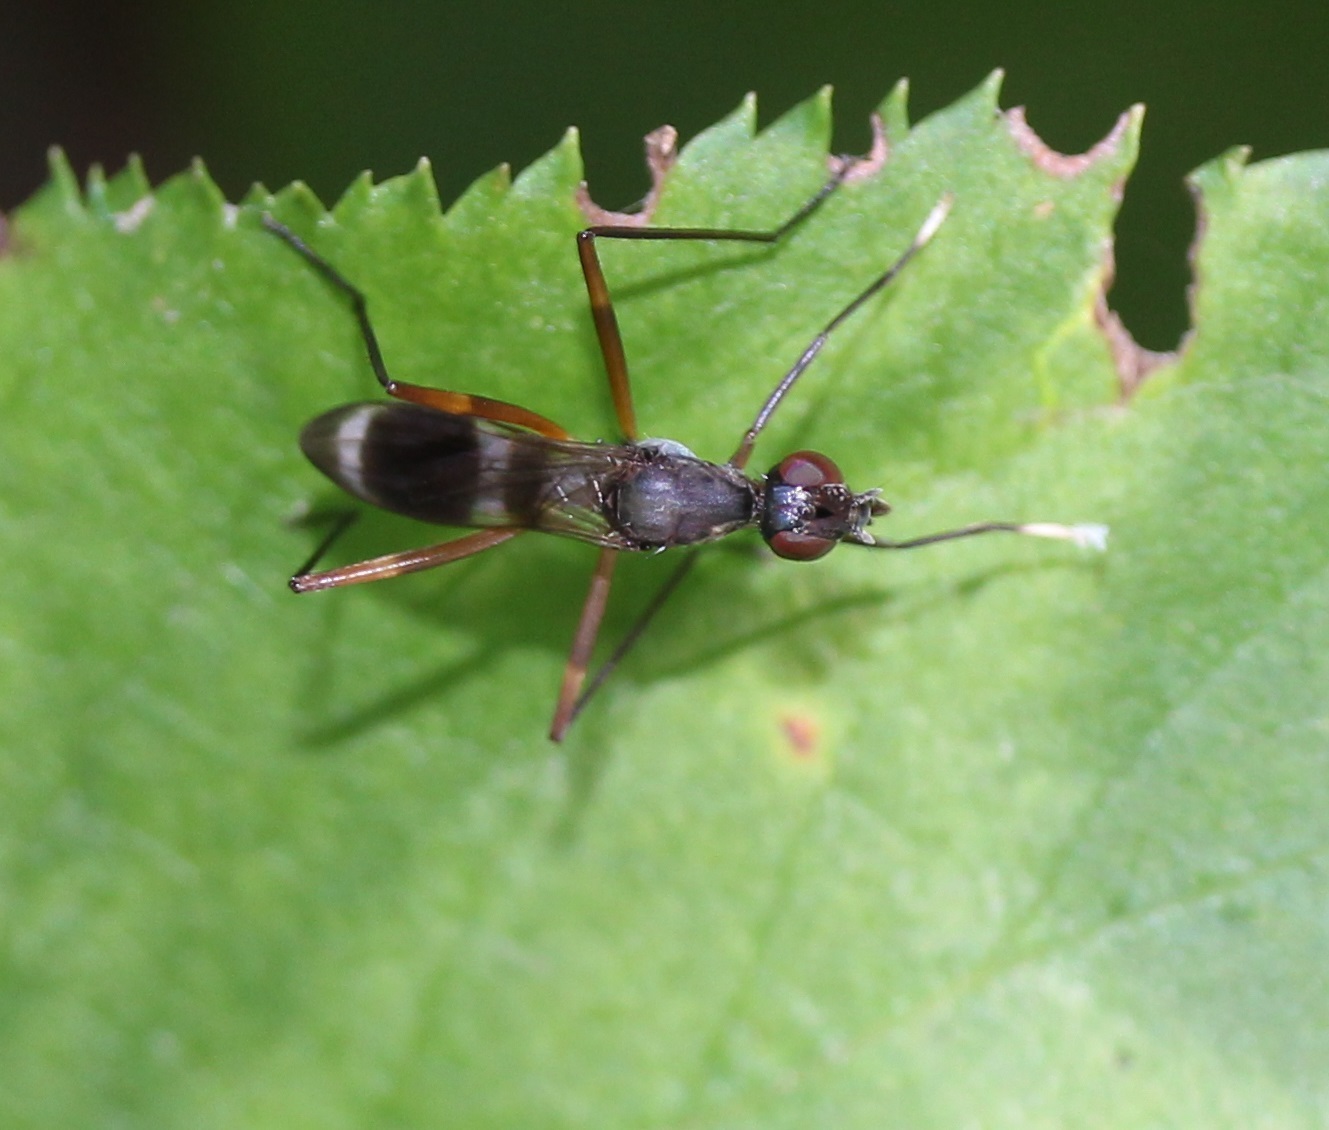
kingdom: Animalia
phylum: Arthropoda
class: Insecta
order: Diptera
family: Micropezidae
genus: Taeniaptera
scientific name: Taeniaptera trivittata
